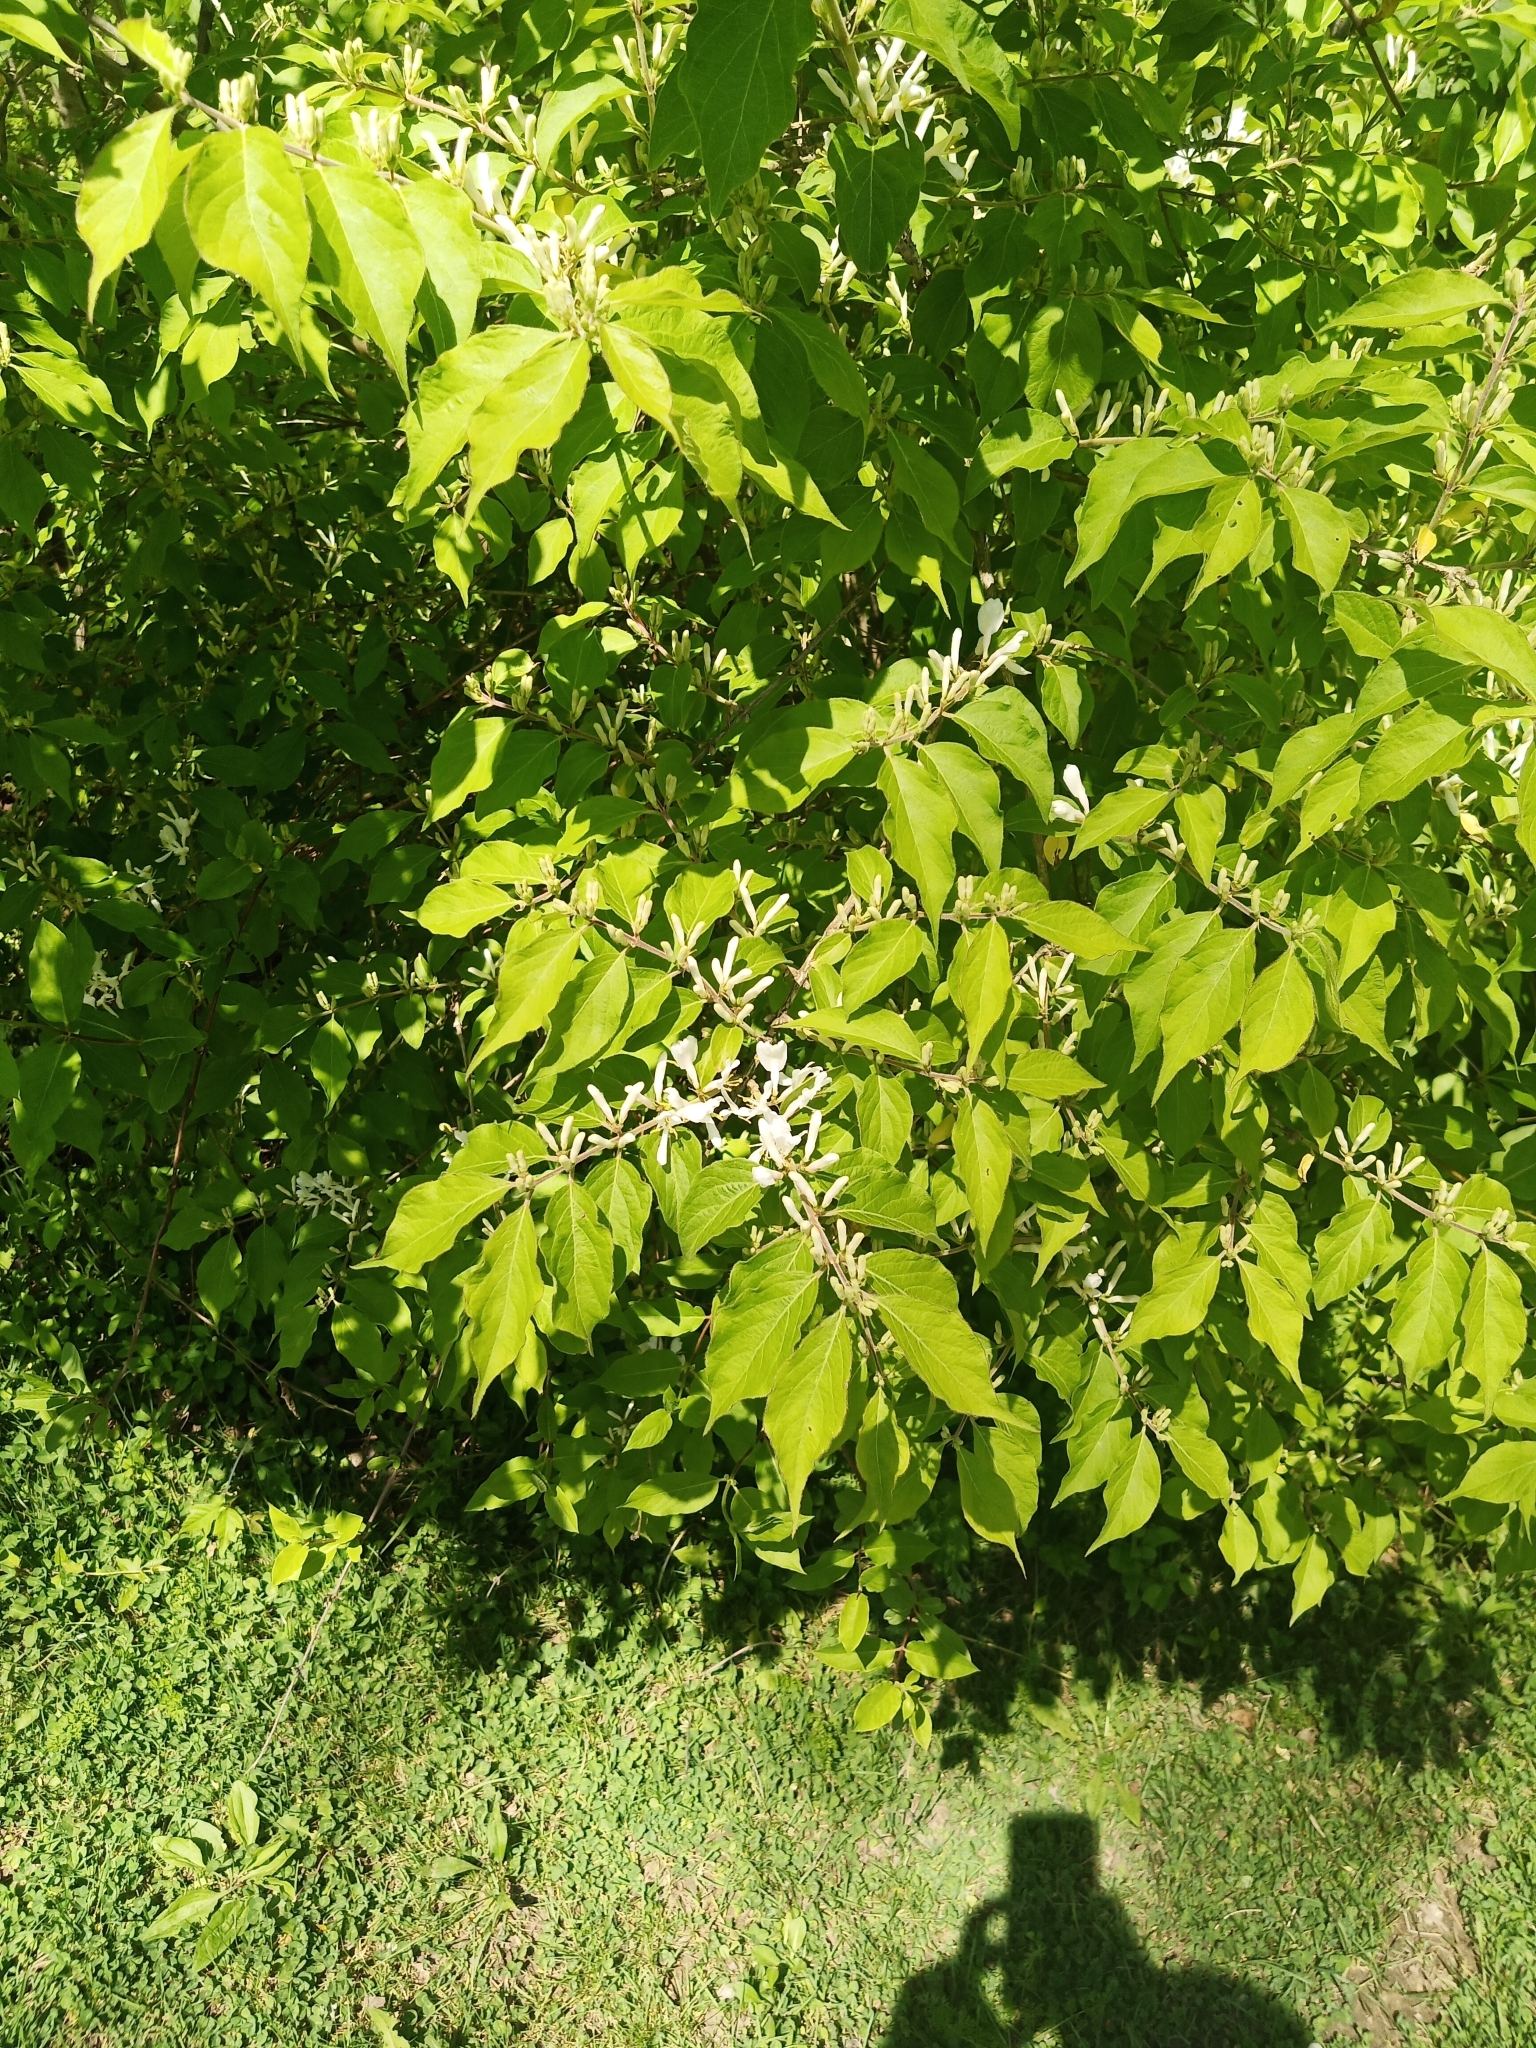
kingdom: Plantae
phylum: Tracheophyta
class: Magnoliopsida
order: Dipsacales
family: Caprifoliaceae
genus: Lonicera
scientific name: Lonicera maackii
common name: Amur honeysuckle
